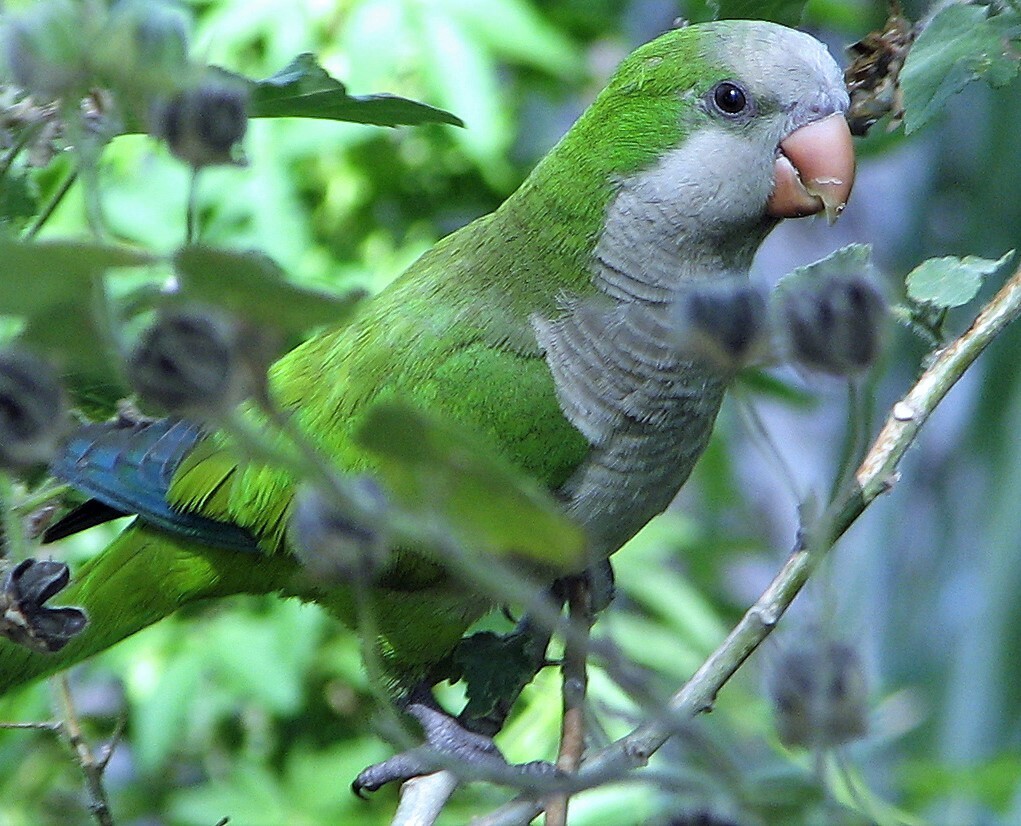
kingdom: Animalia
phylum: Chordata
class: Aves
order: Psittaciformes
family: Psittacidae
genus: Myiopsitta
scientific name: Myiopsitta monachus
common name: Monk parakeet
